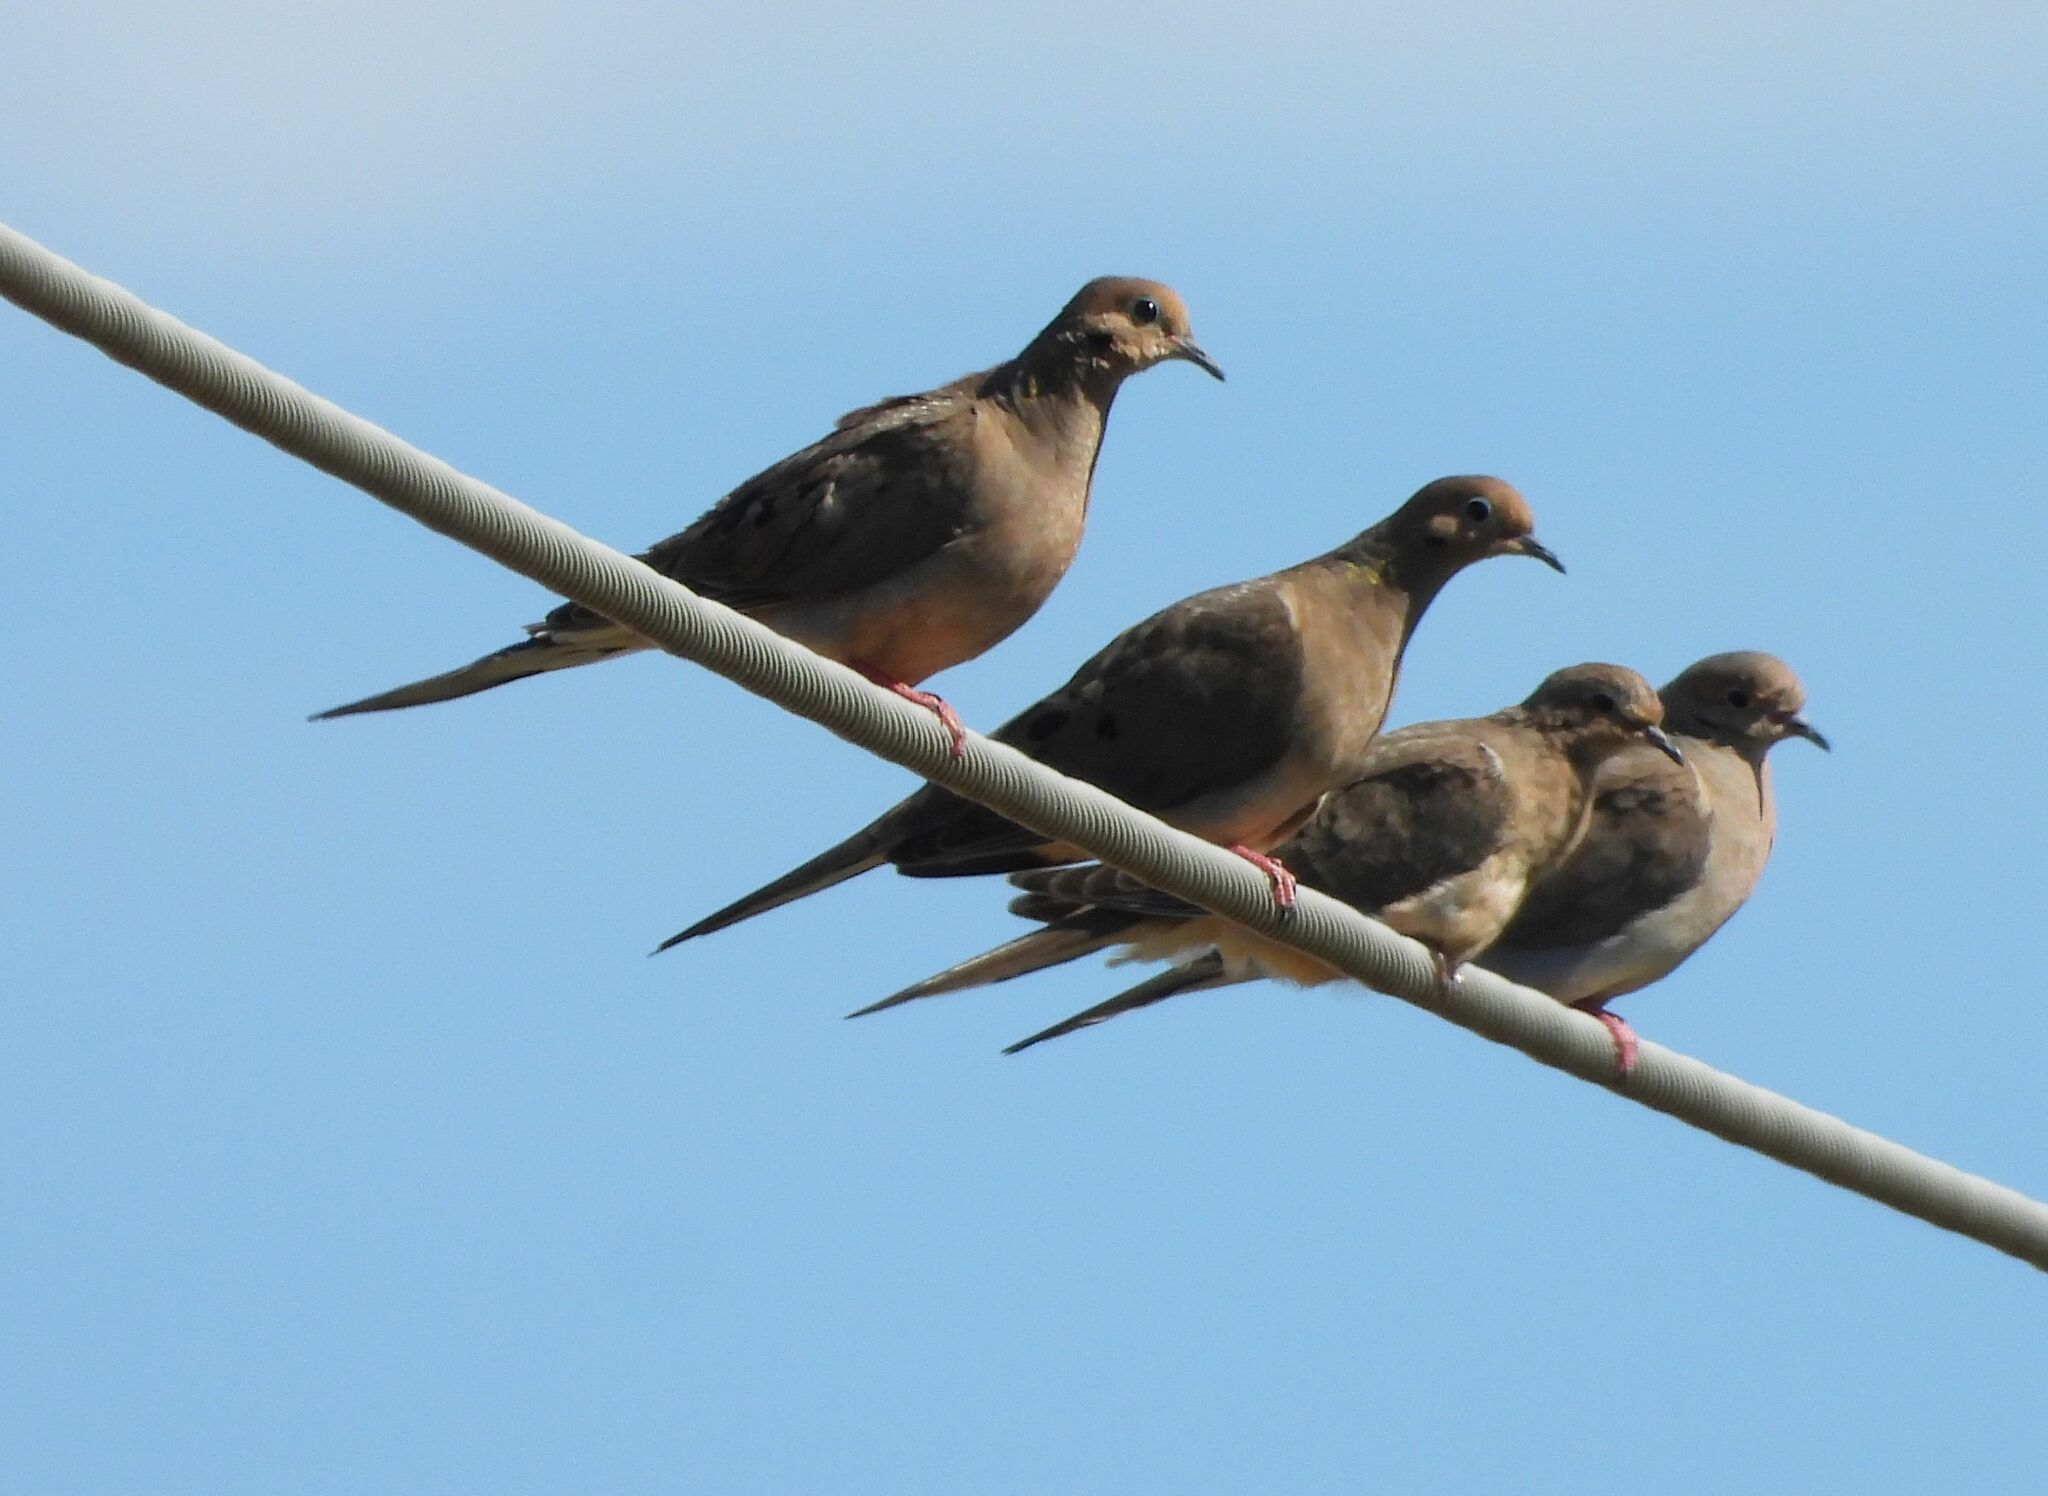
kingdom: Animalia
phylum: Chordata
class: Aves
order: Columbiformes
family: Columbidae
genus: Zenaida
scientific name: Zenaida macroura
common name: Mourning dove
